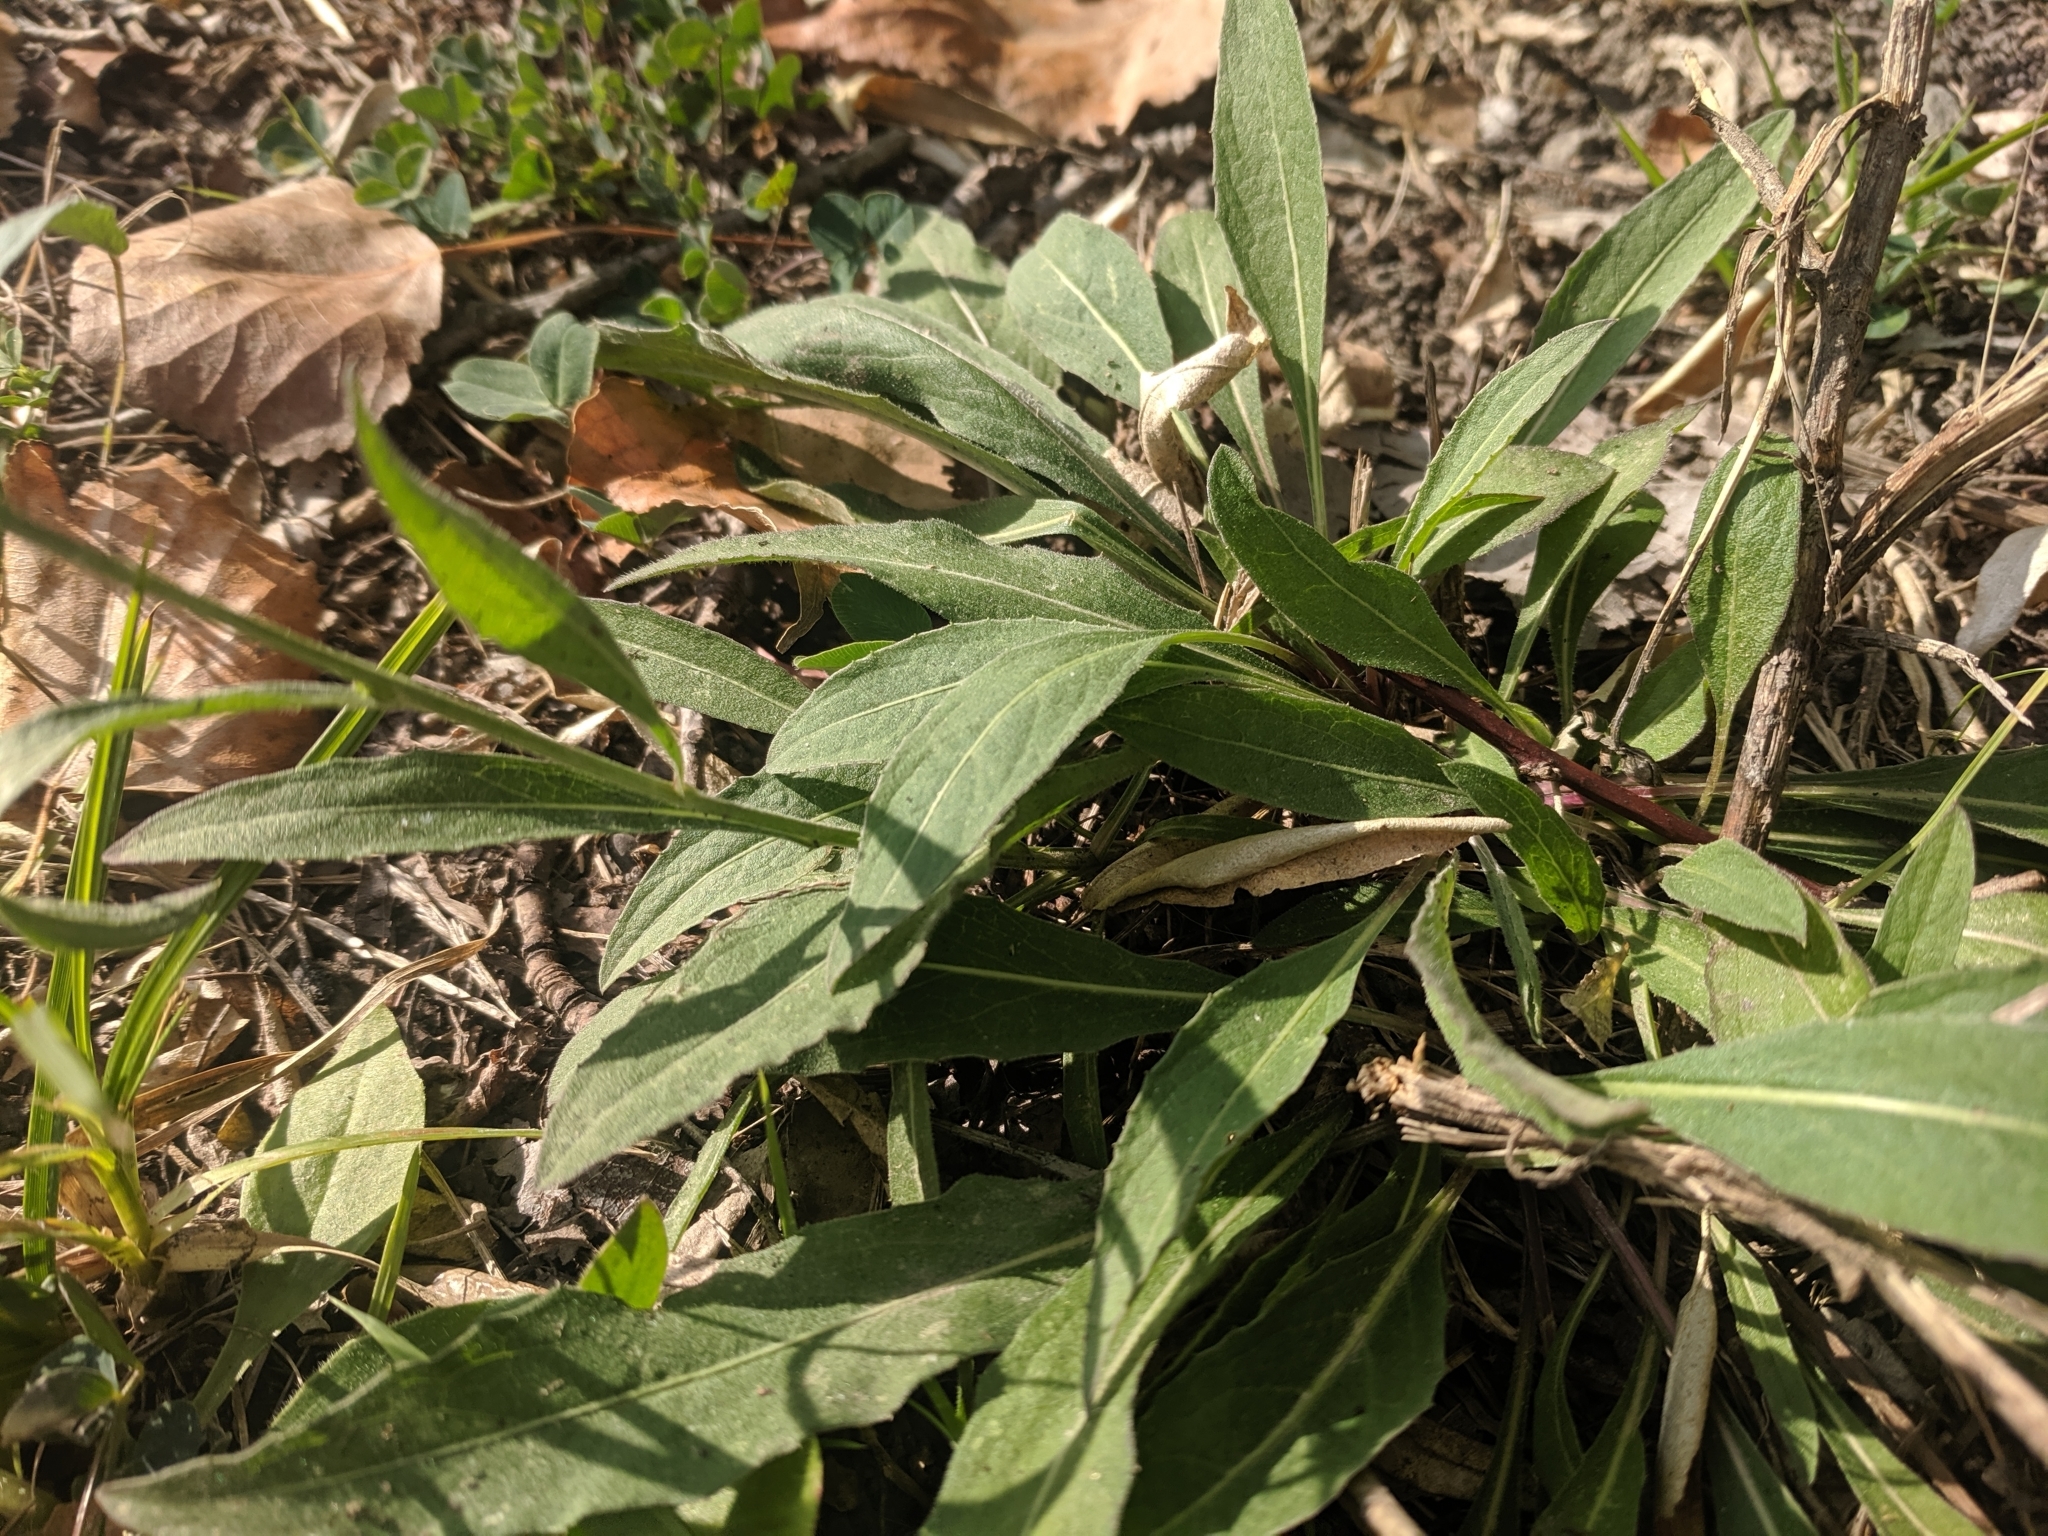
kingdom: Plantae
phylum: Tracheophyta
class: Magnoliopsida
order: Asterales
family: Asteraceae
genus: Centaurea
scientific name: Centaurea jacea
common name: Brown knapweed
